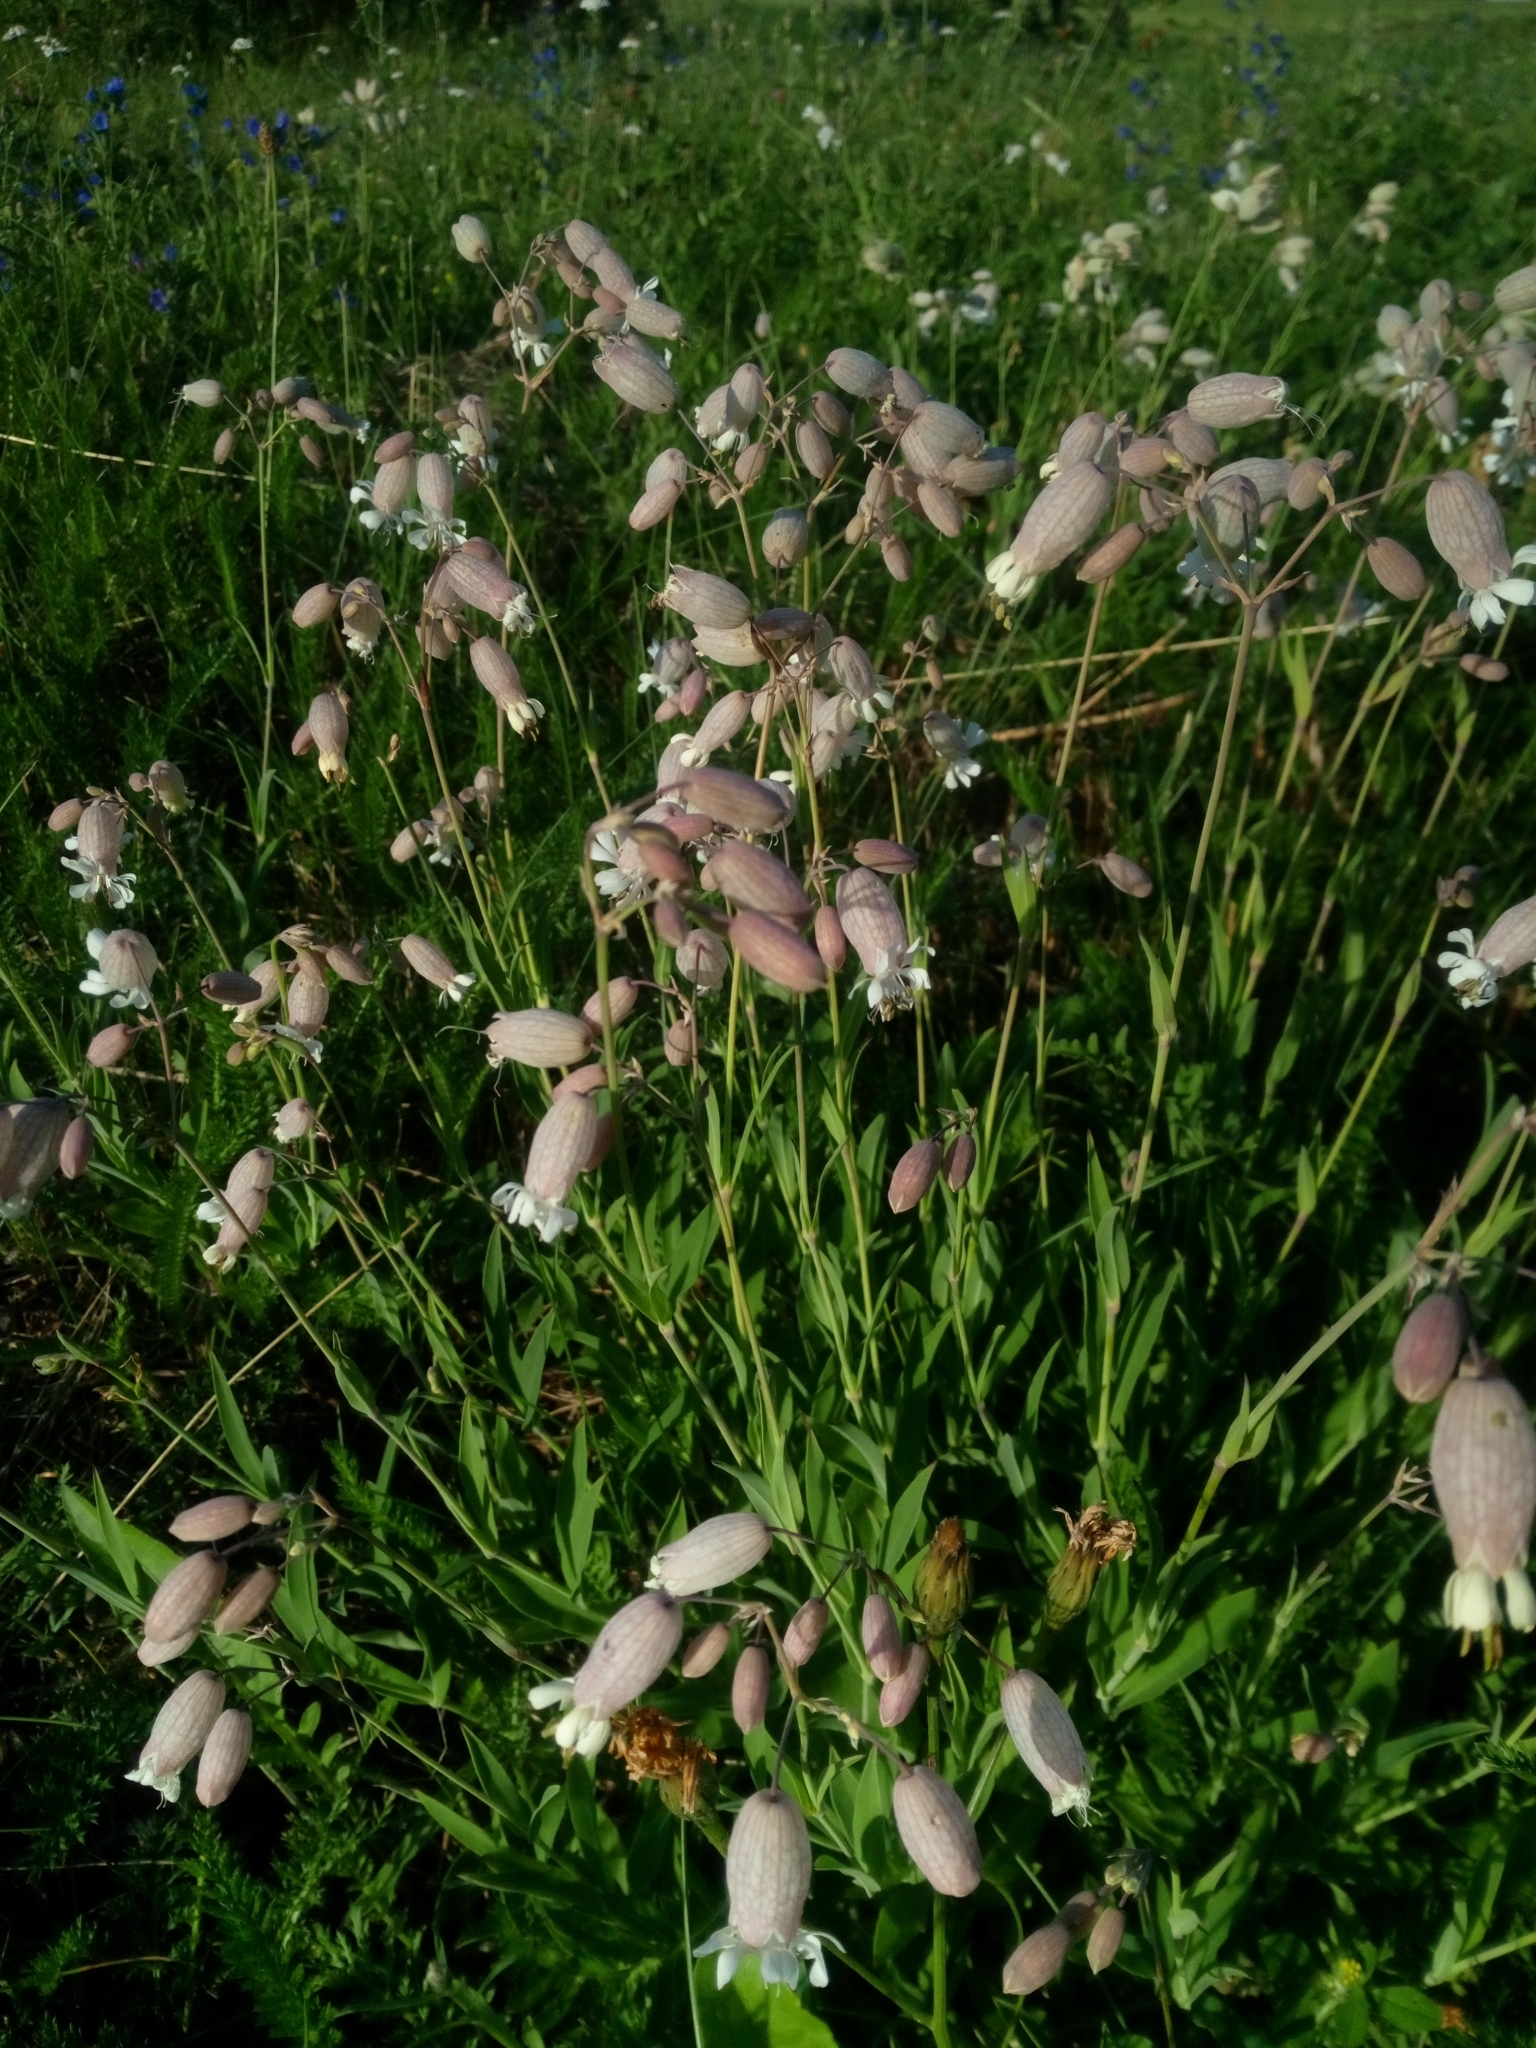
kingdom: Plantae
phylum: Tracheophyta
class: Magnoliopsida
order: Caryophyllales
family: Caryophyllaceae
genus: Silene
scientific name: Silene vulgaris
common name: Bladder campion
